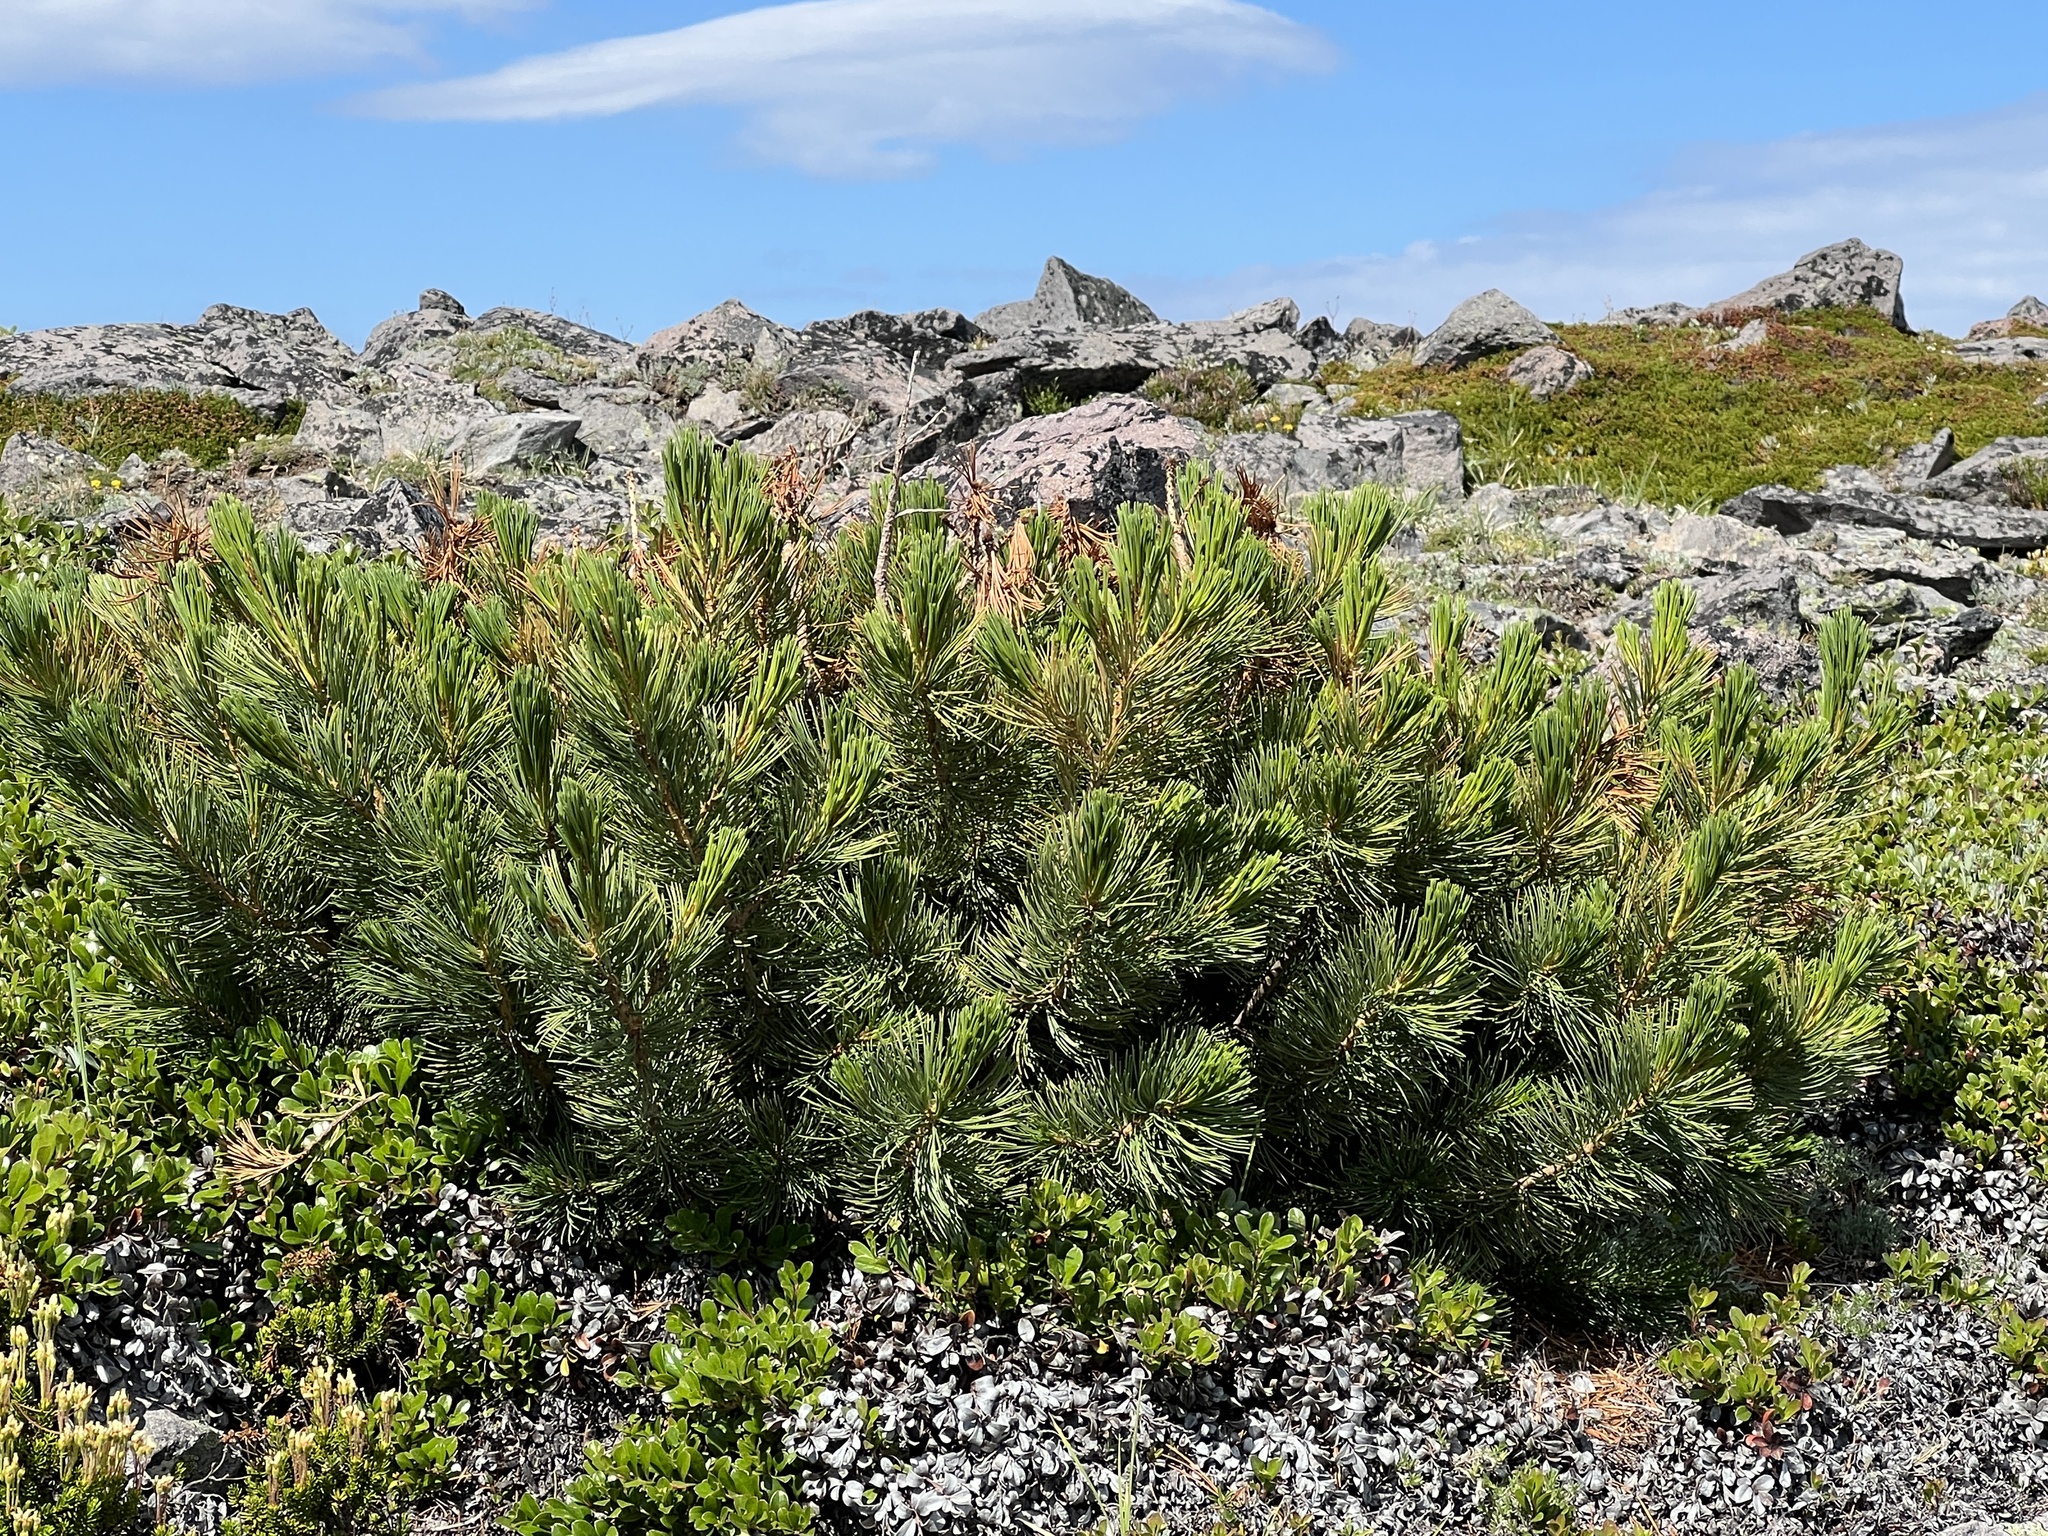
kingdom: Plantae
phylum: Tracheophyta
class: Pinopsida
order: Pinales
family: Pinaceae
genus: Pinus
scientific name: Pinus albicaulis
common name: Whitebark pine
